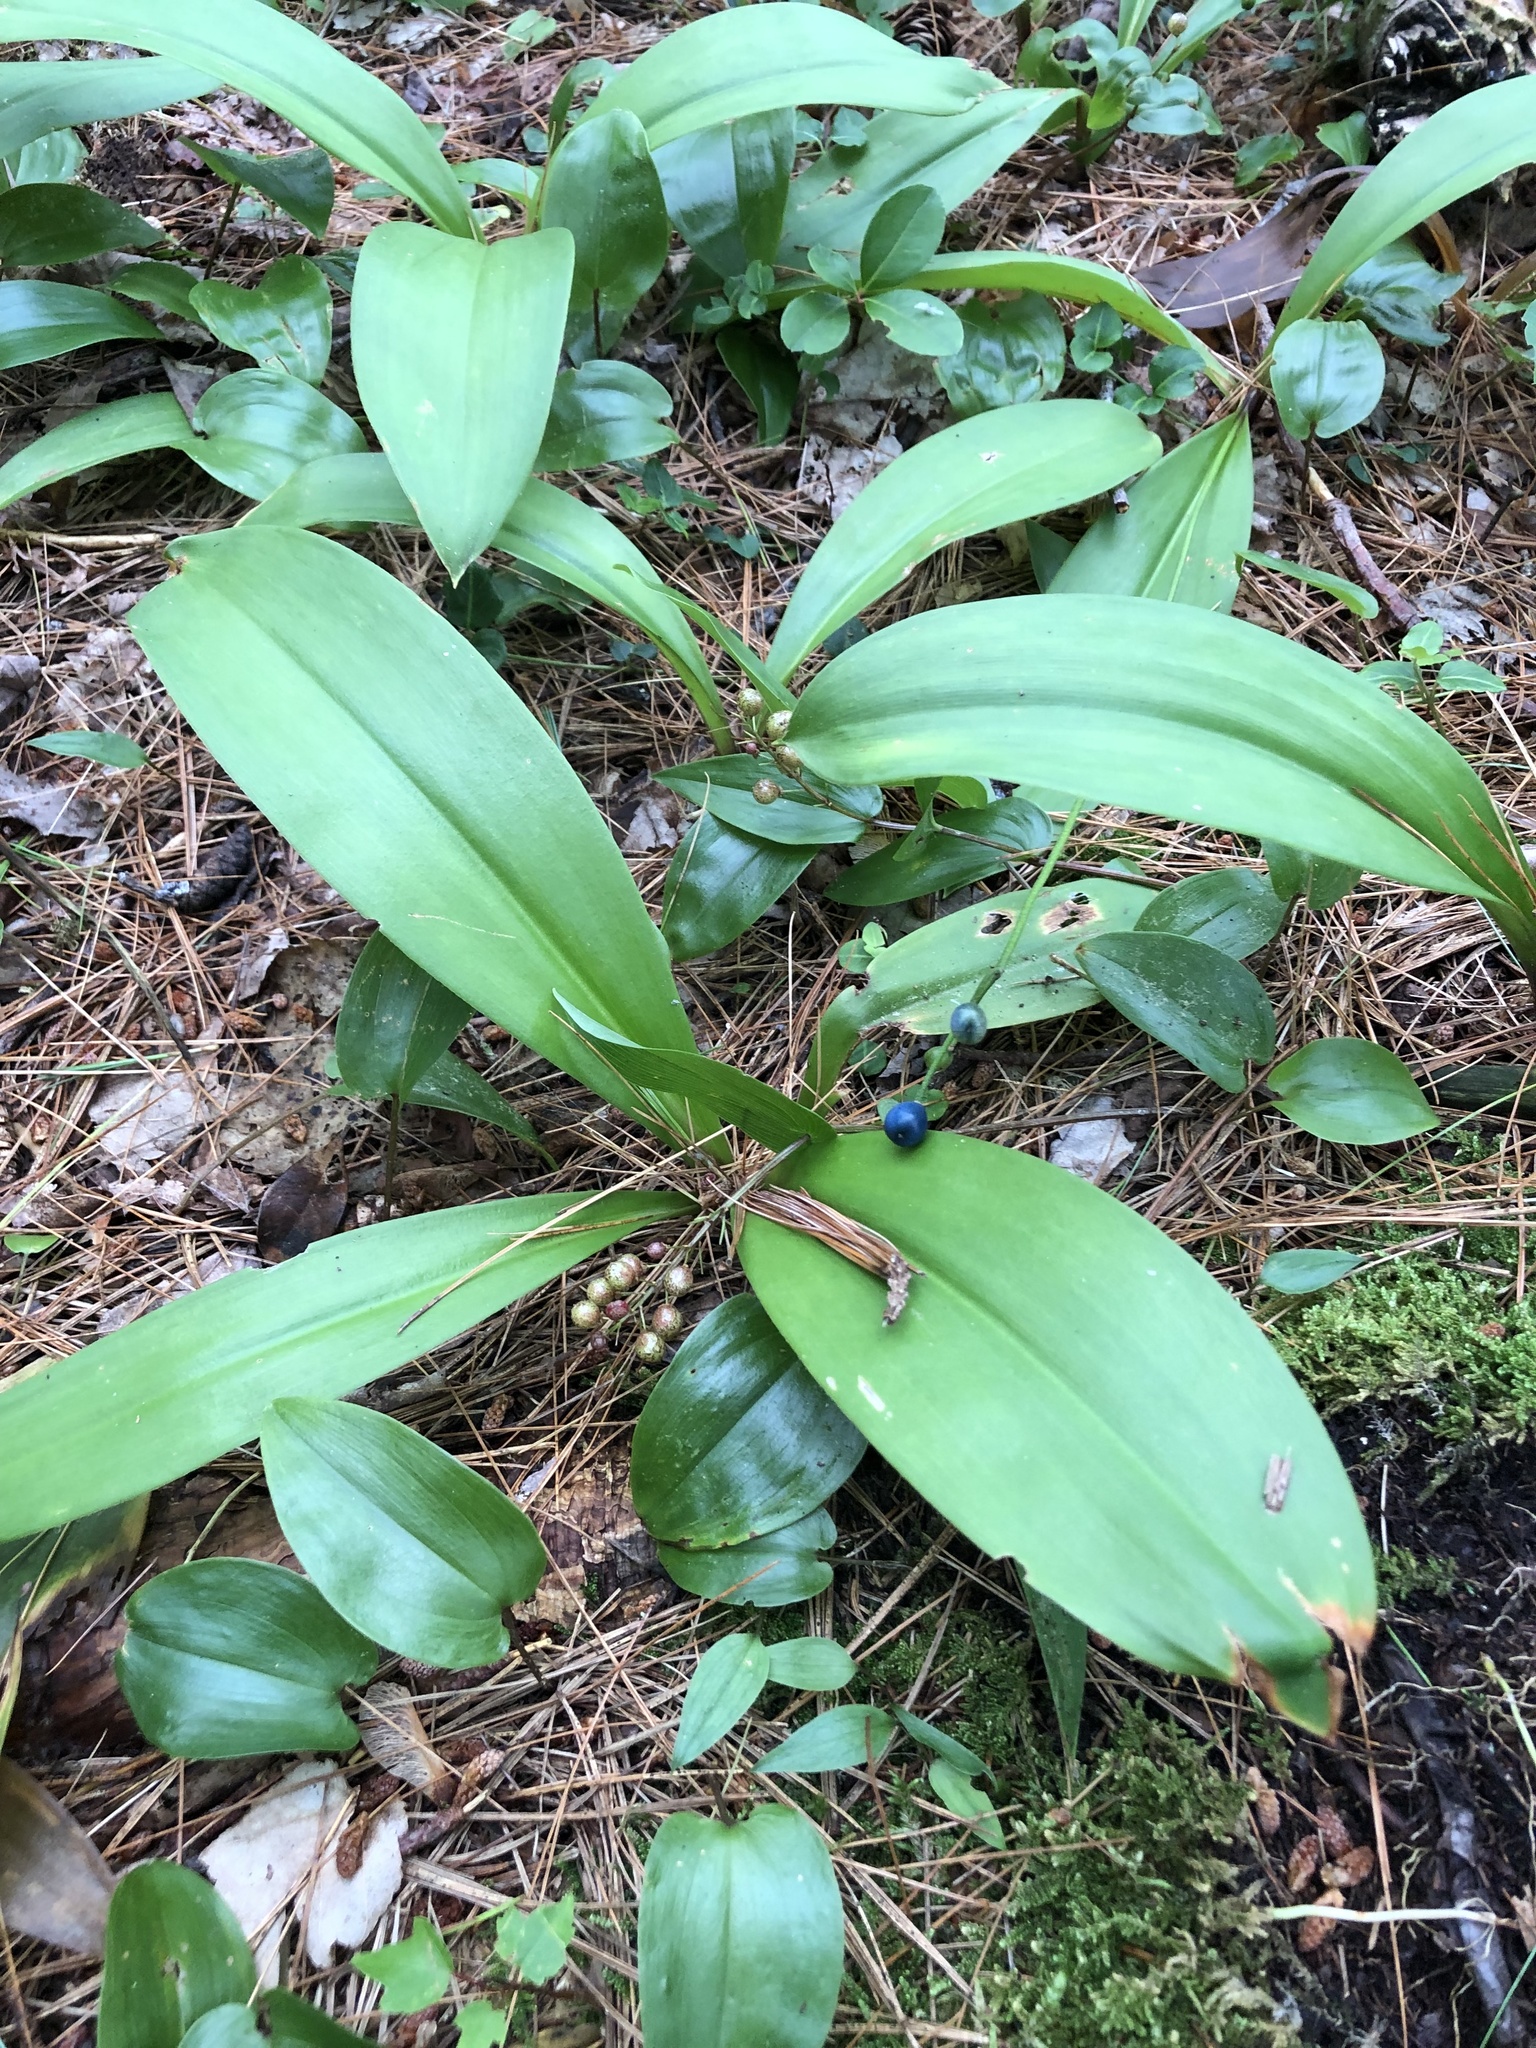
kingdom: Plantae
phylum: Tracheophyta
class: Liliopsida
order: Liliales
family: Liliaceae
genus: Clintonia
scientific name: Clintonia borealis
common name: Yellow clintonia
